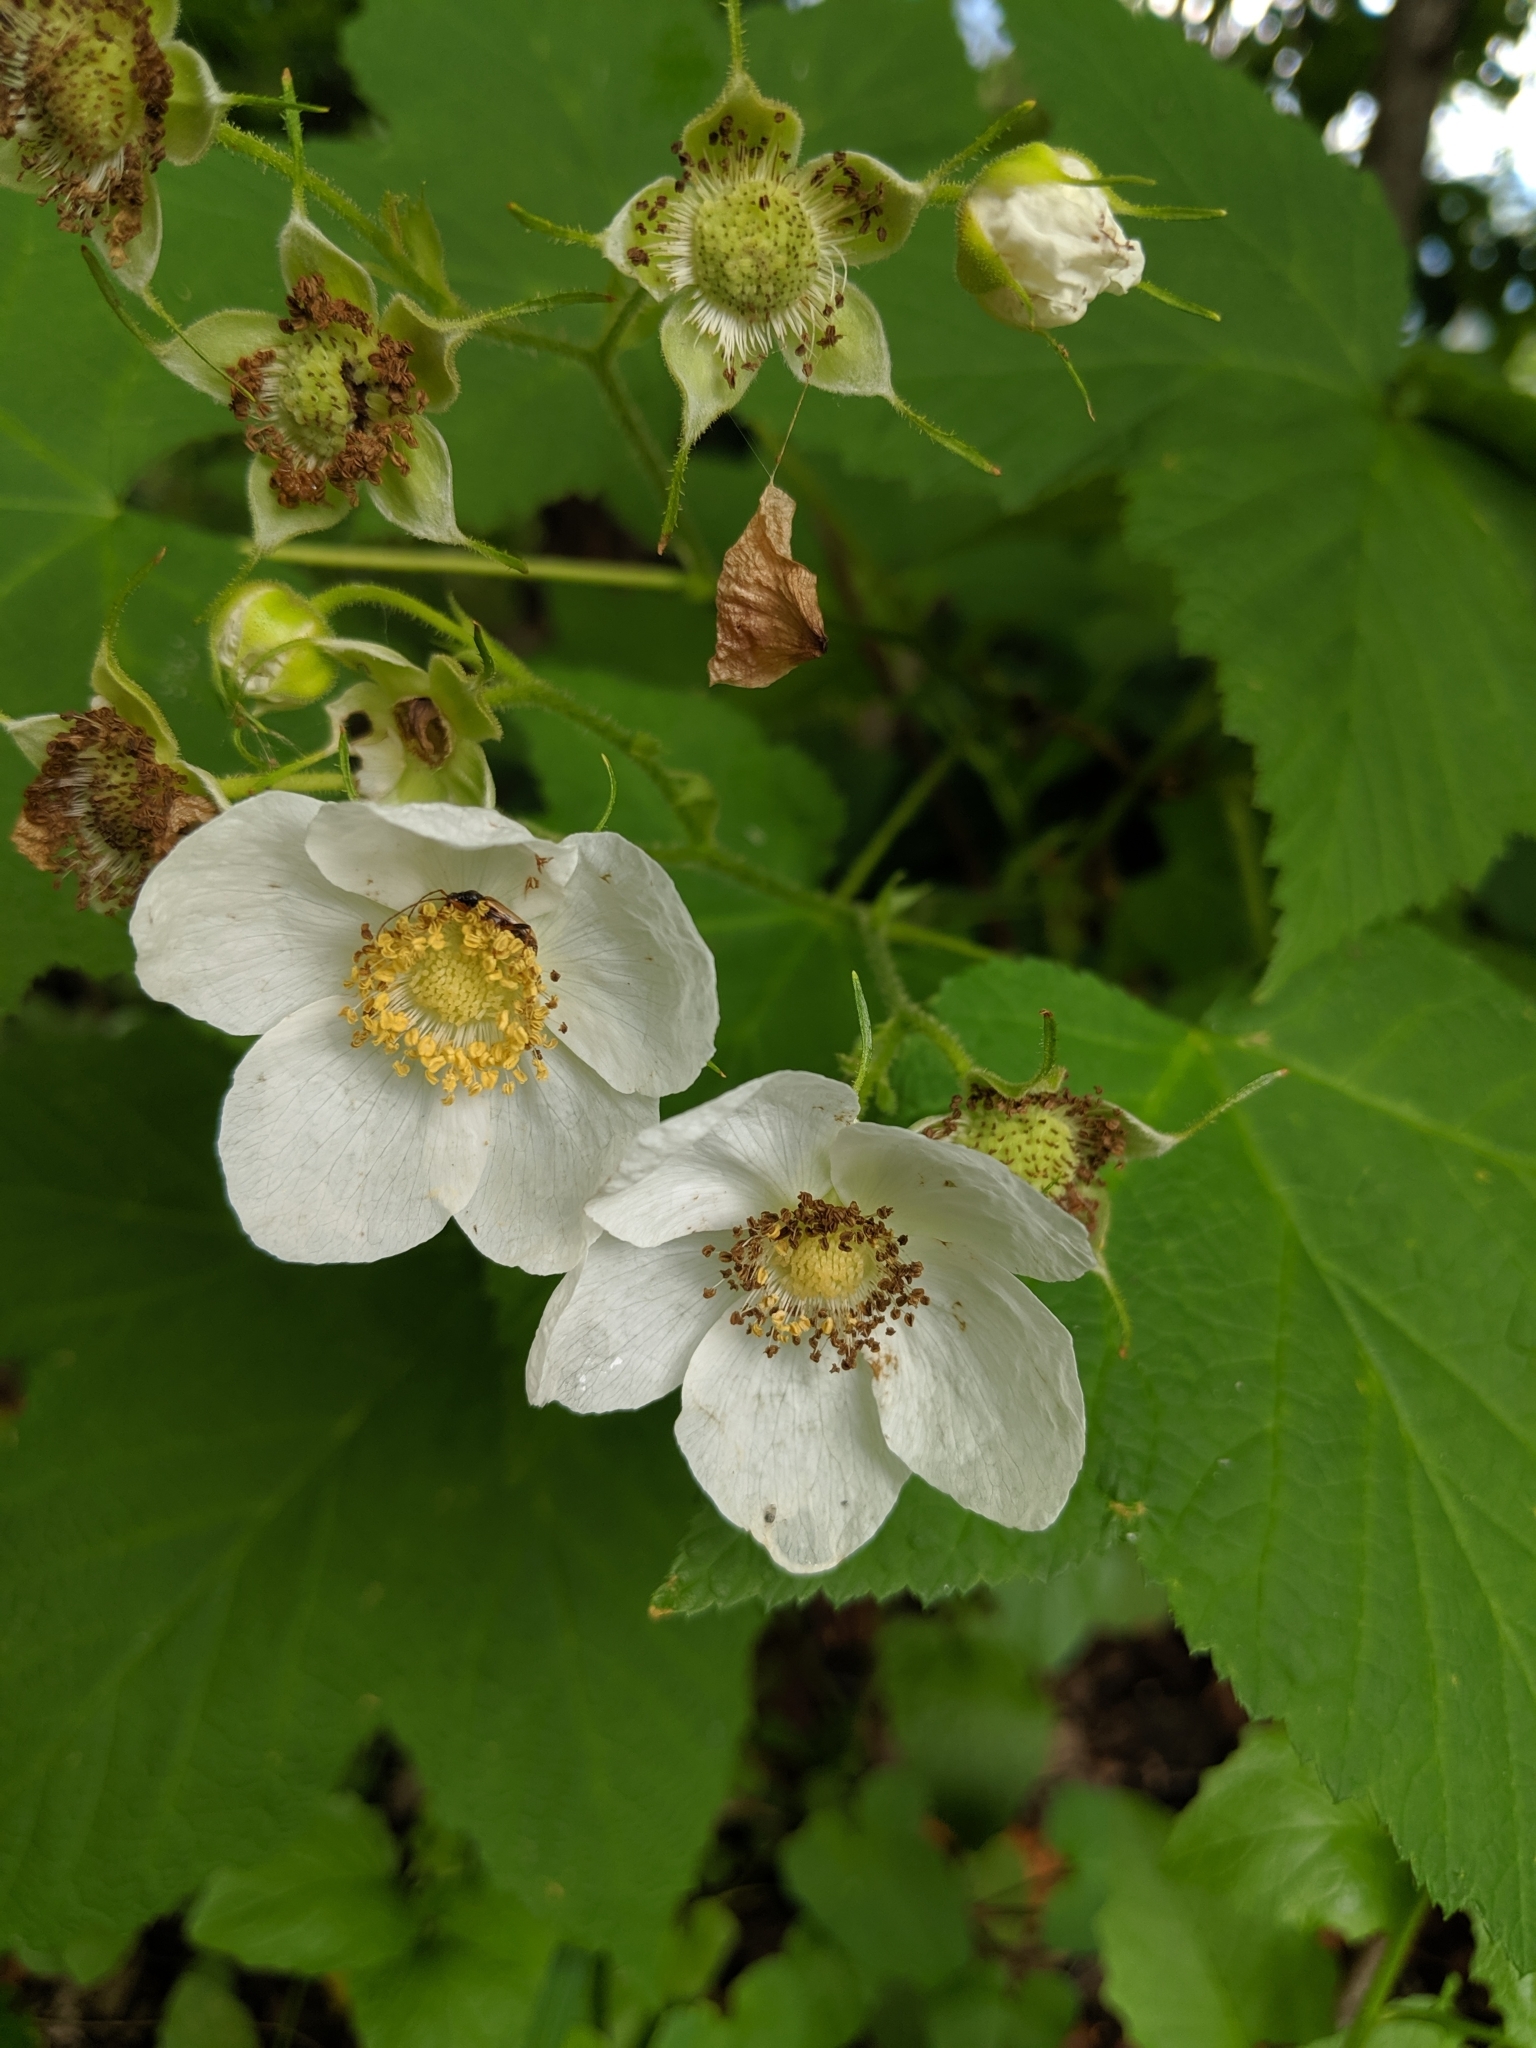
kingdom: Plantae
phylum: Tracheophyta
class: Magnoliopsida
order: Rosales
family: Rosaceae
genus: Rubus
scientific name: Rubus parviflorus
